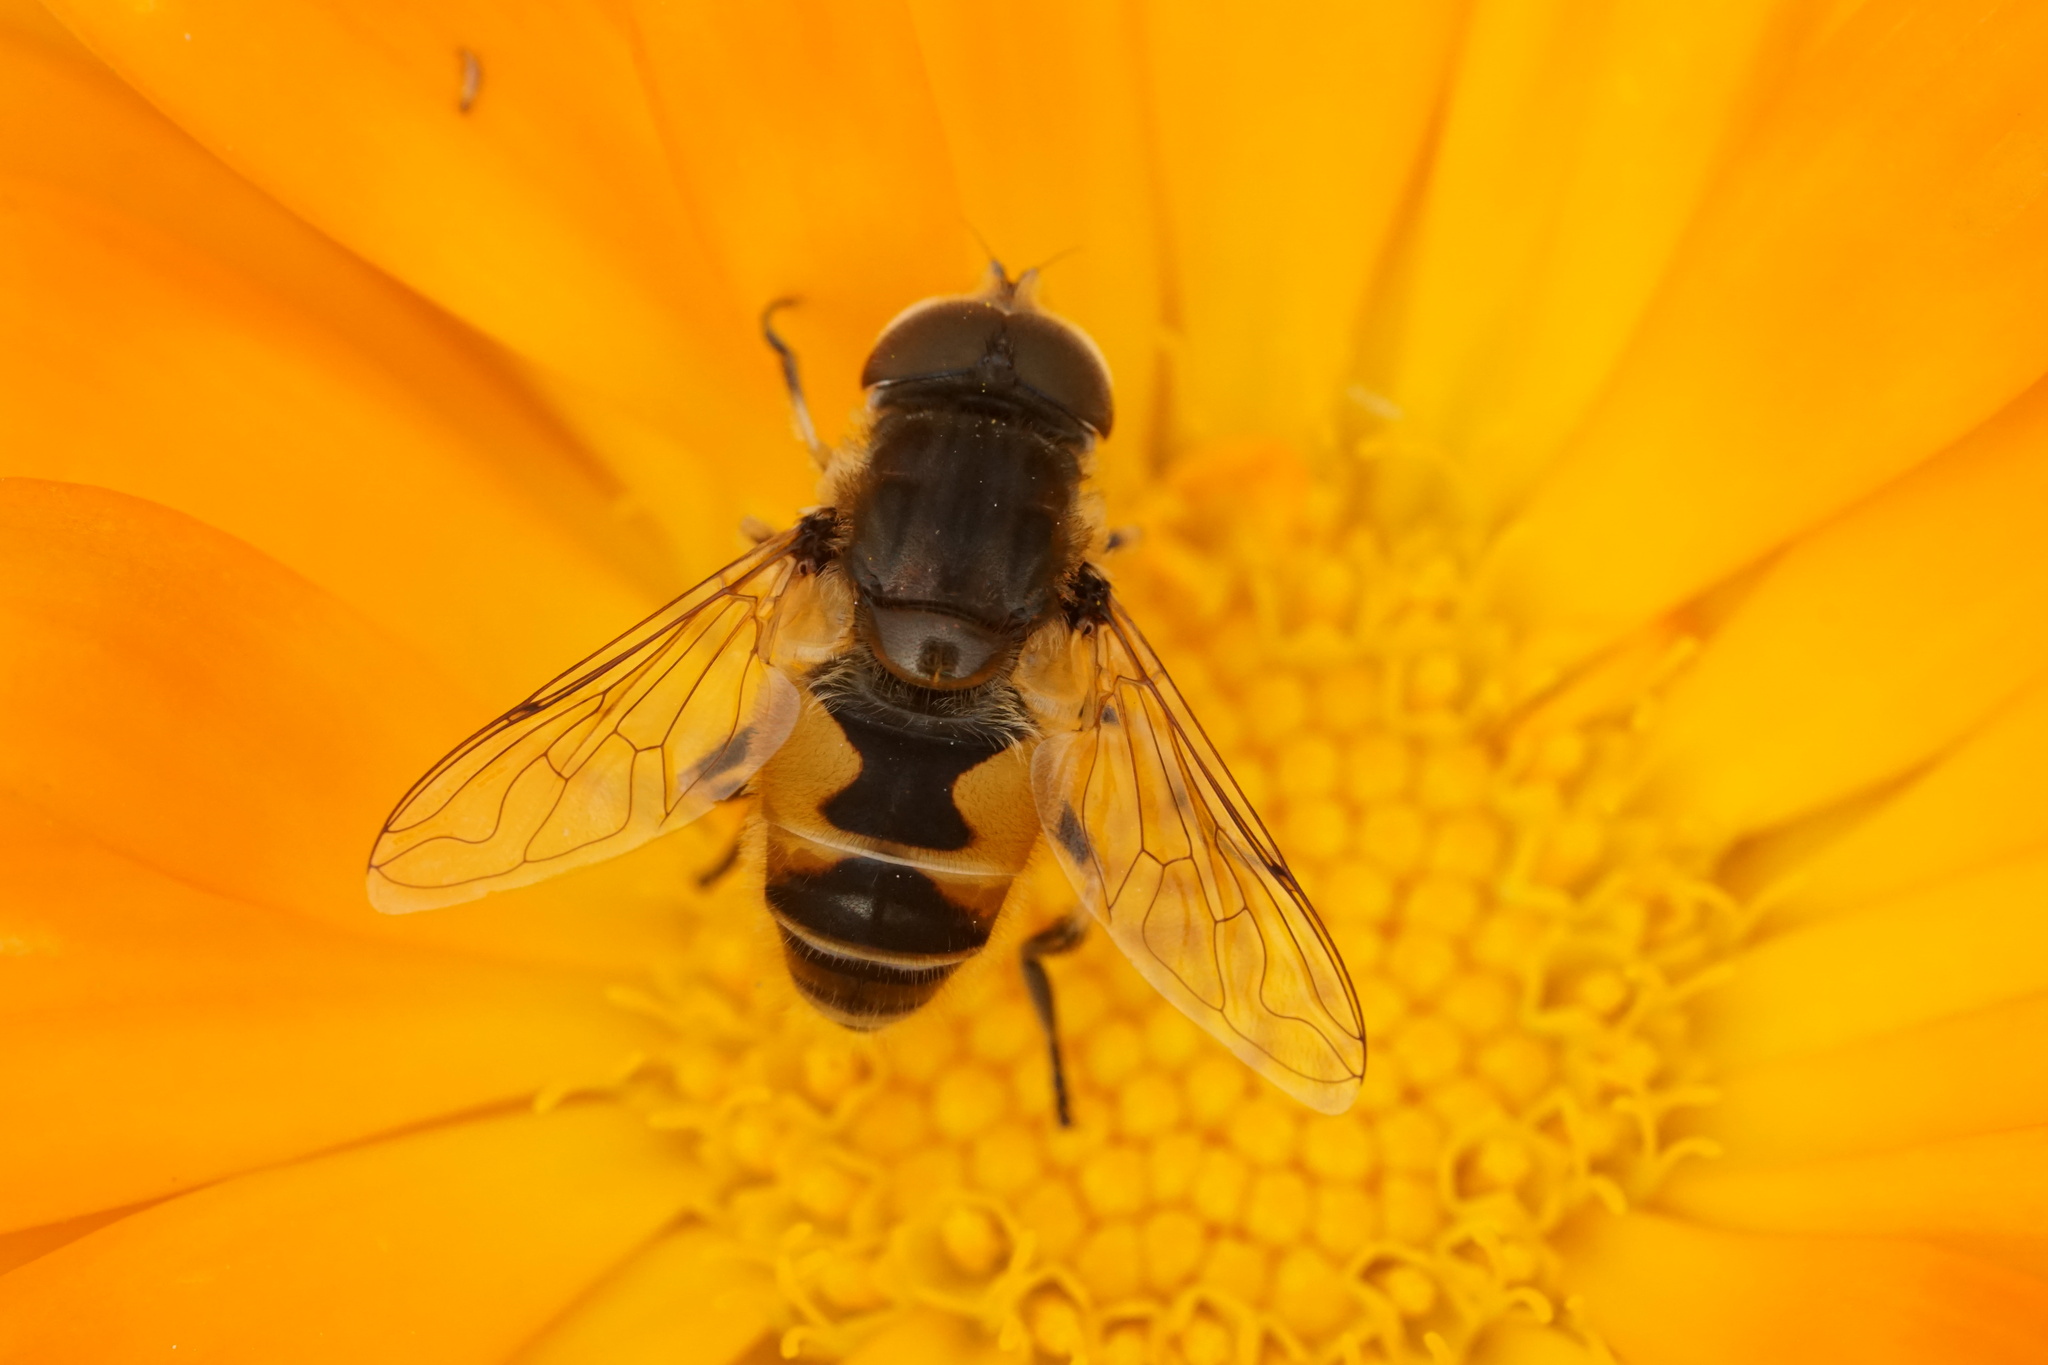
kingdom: Animalia
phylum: Arthropoda
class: Insecta
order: Diptera
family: Syrphidae
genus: Eristalis
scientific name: Eristalis arbustorum
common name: Hover fly
